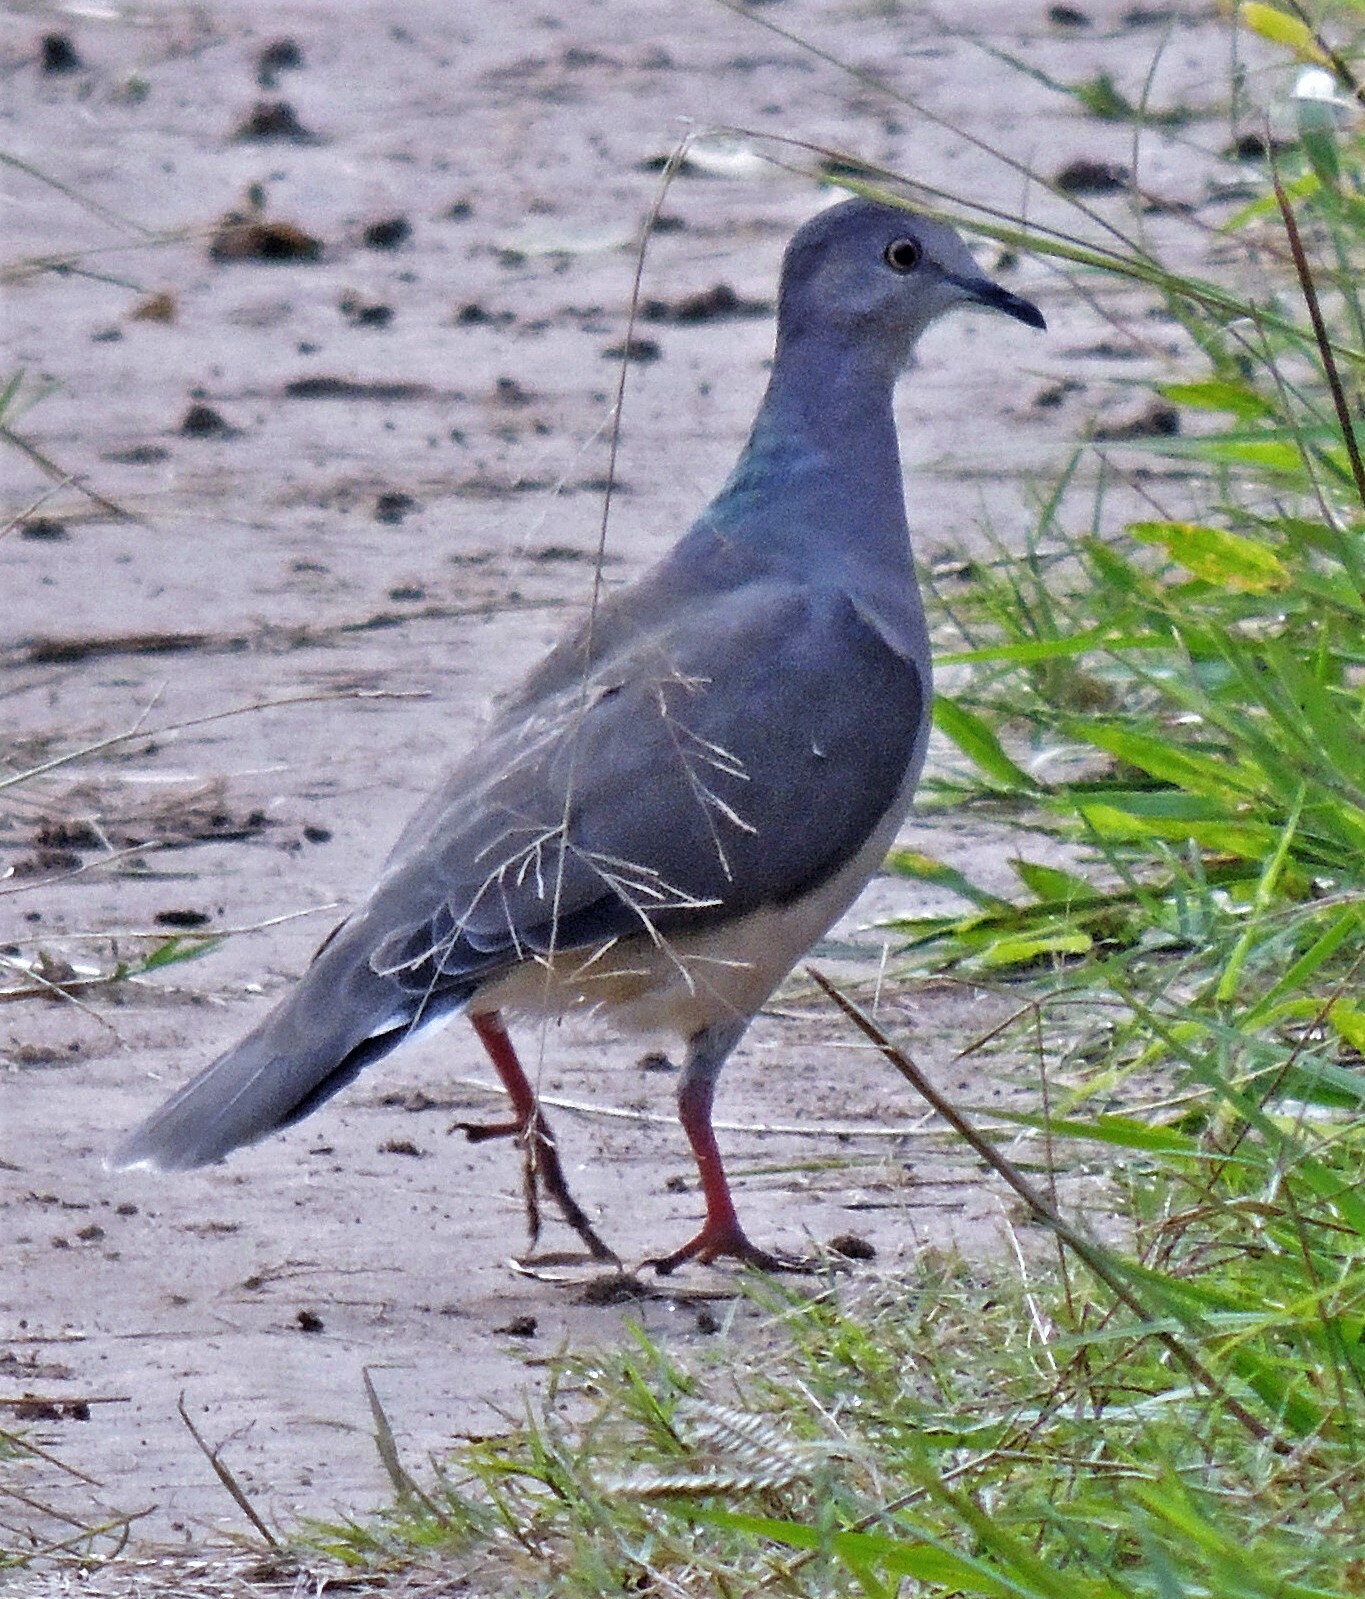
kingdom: Animalia
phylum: Chordata
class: Aves
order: Columbiformes
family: Columbidae
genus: Leptotila
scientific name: Leptotila verreauxi
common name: White-tipped dove
